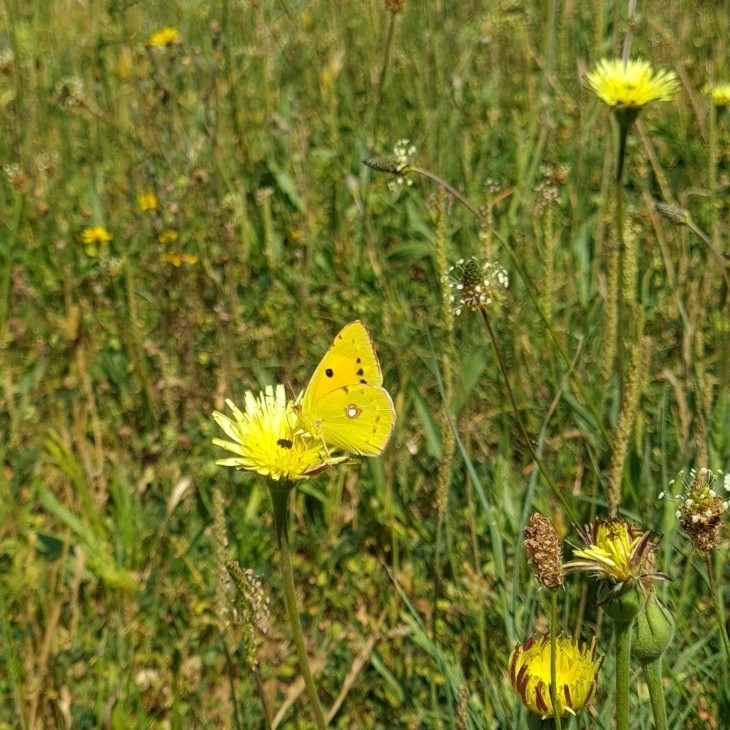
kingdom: Animalia
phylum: Arthropoda
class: Insecta
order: Lepidoptera
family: Pieridae
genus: Colias
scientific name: Colias croceus
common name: Clouded yellow
